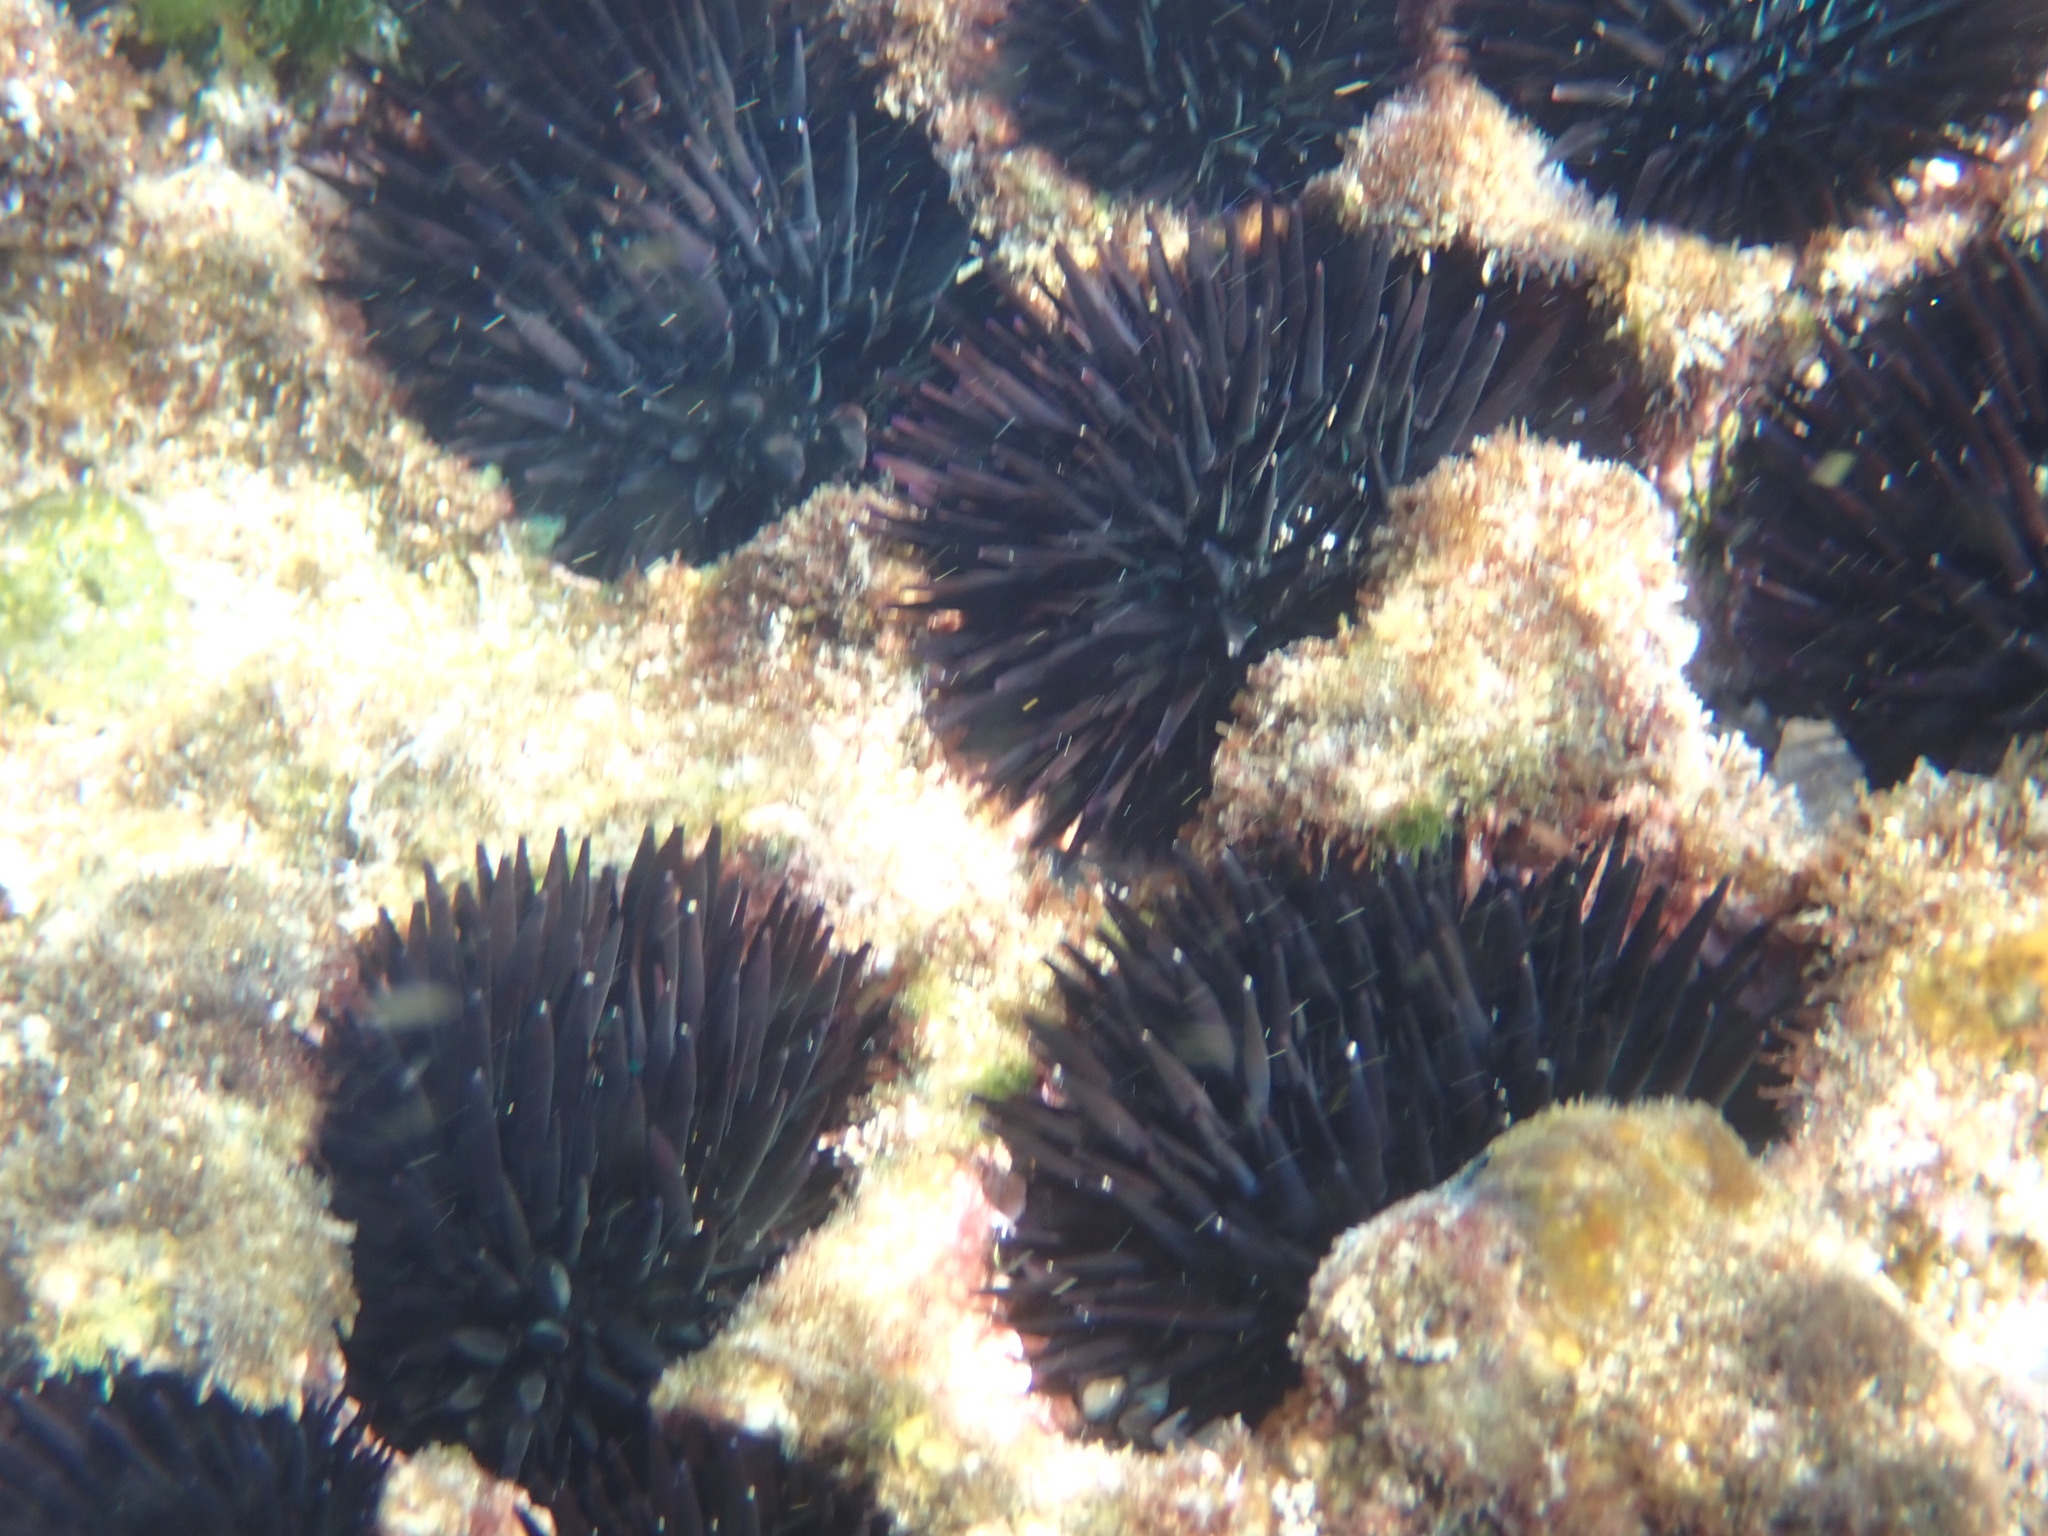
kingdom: Animalia
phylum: Echinodermata
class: Echinoidea
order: Camarodonta
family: Echinometridae
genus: Echinometra
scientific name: Echinometra oblonga
